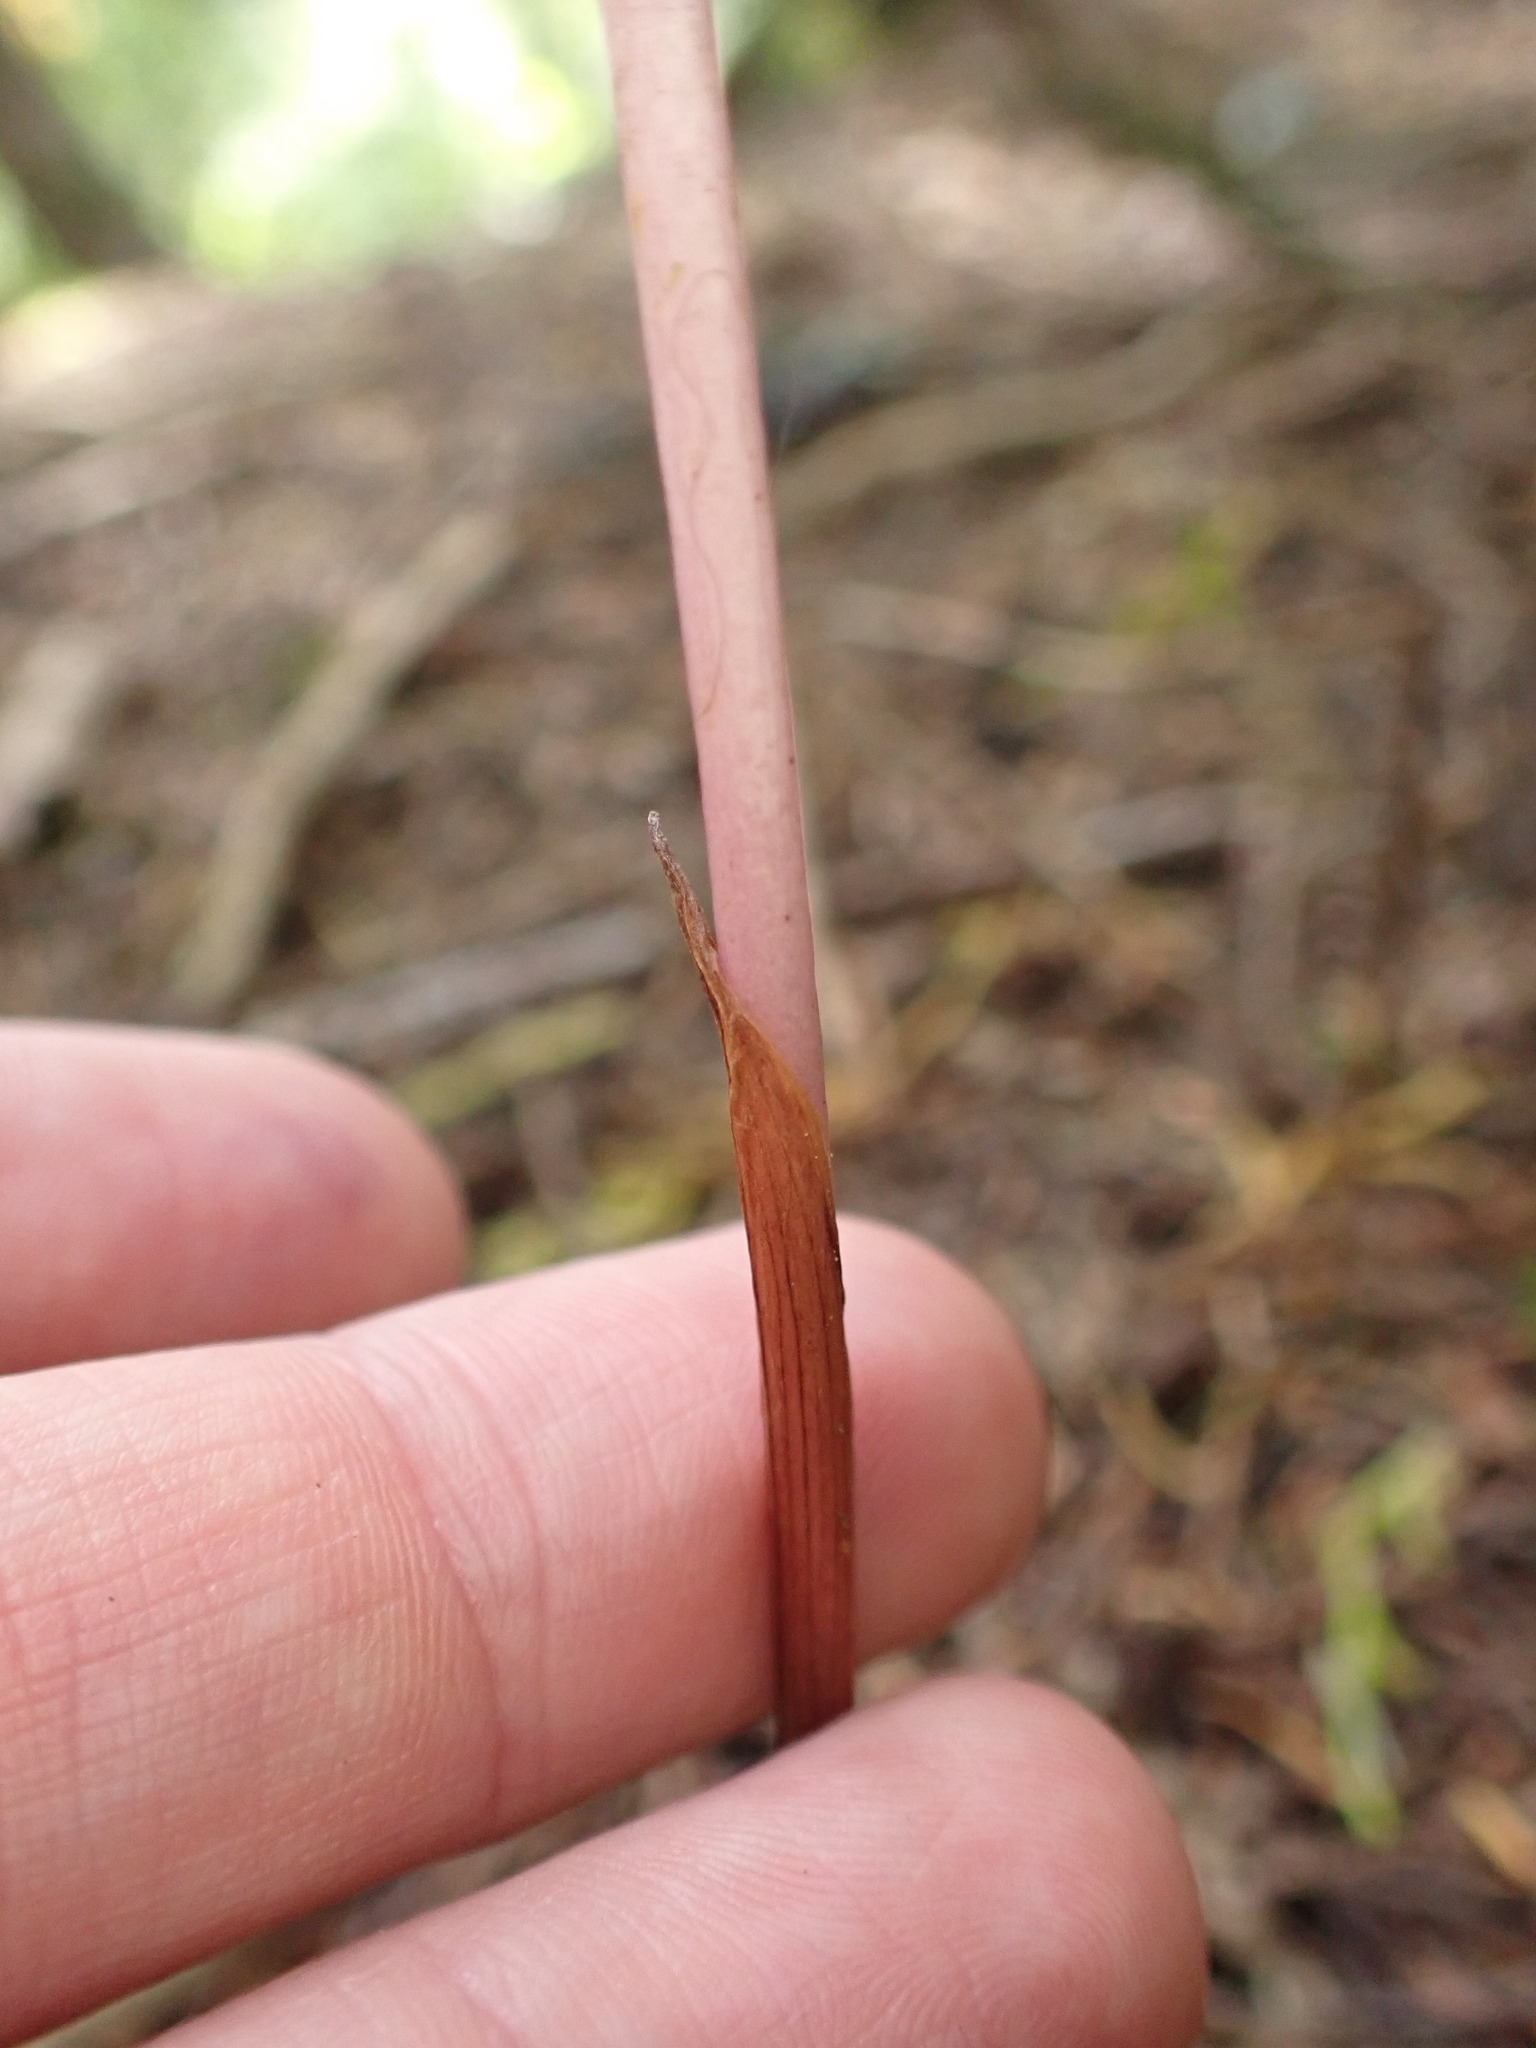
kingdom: Plantae
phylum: Tracheophyta
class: Liliopsida
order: Asparagales
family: Orchidaceae
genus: Corallorhiza
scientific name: Corallorhiza mertensiana
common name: Pacific coralroot
